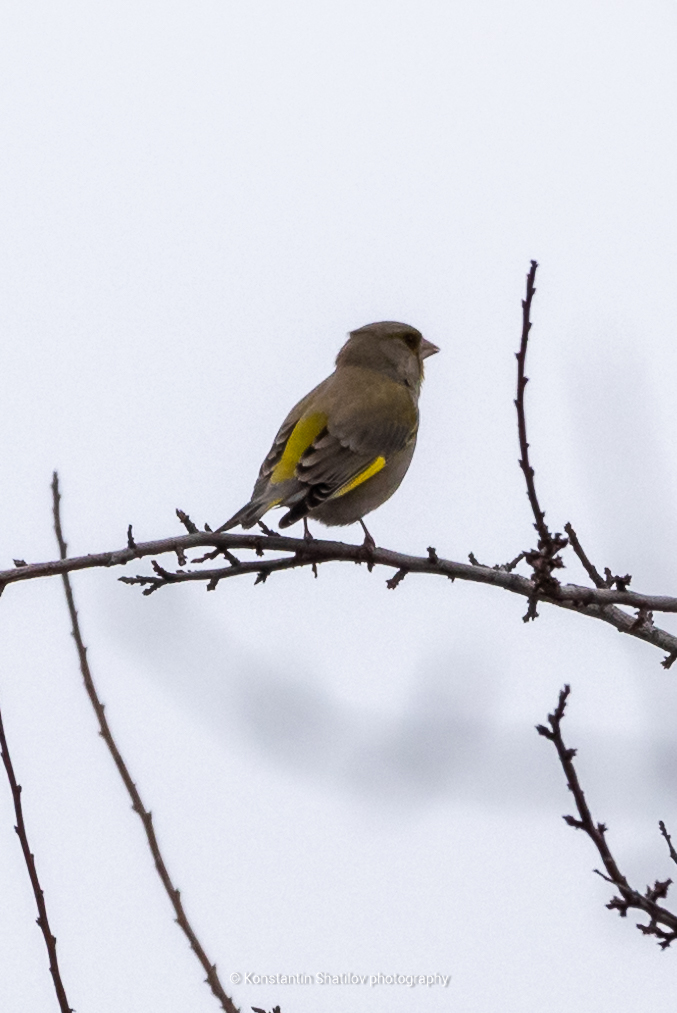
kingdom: Plantae
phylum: Tracheophyta
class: Liliopsida
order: Poales
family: Poaceae
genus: Chloris
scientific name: Chloris chloris
